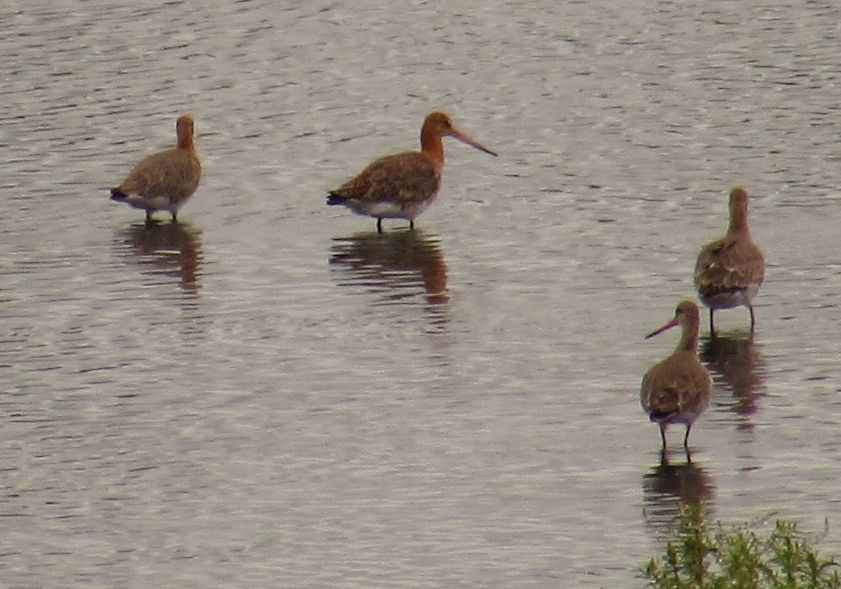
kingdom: Animalia
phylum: Chordata
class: Aves
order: Charadriiformes
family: Scolopacidae
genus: Limosa
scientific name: Limosa limosa
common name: Black-tailed godwit
